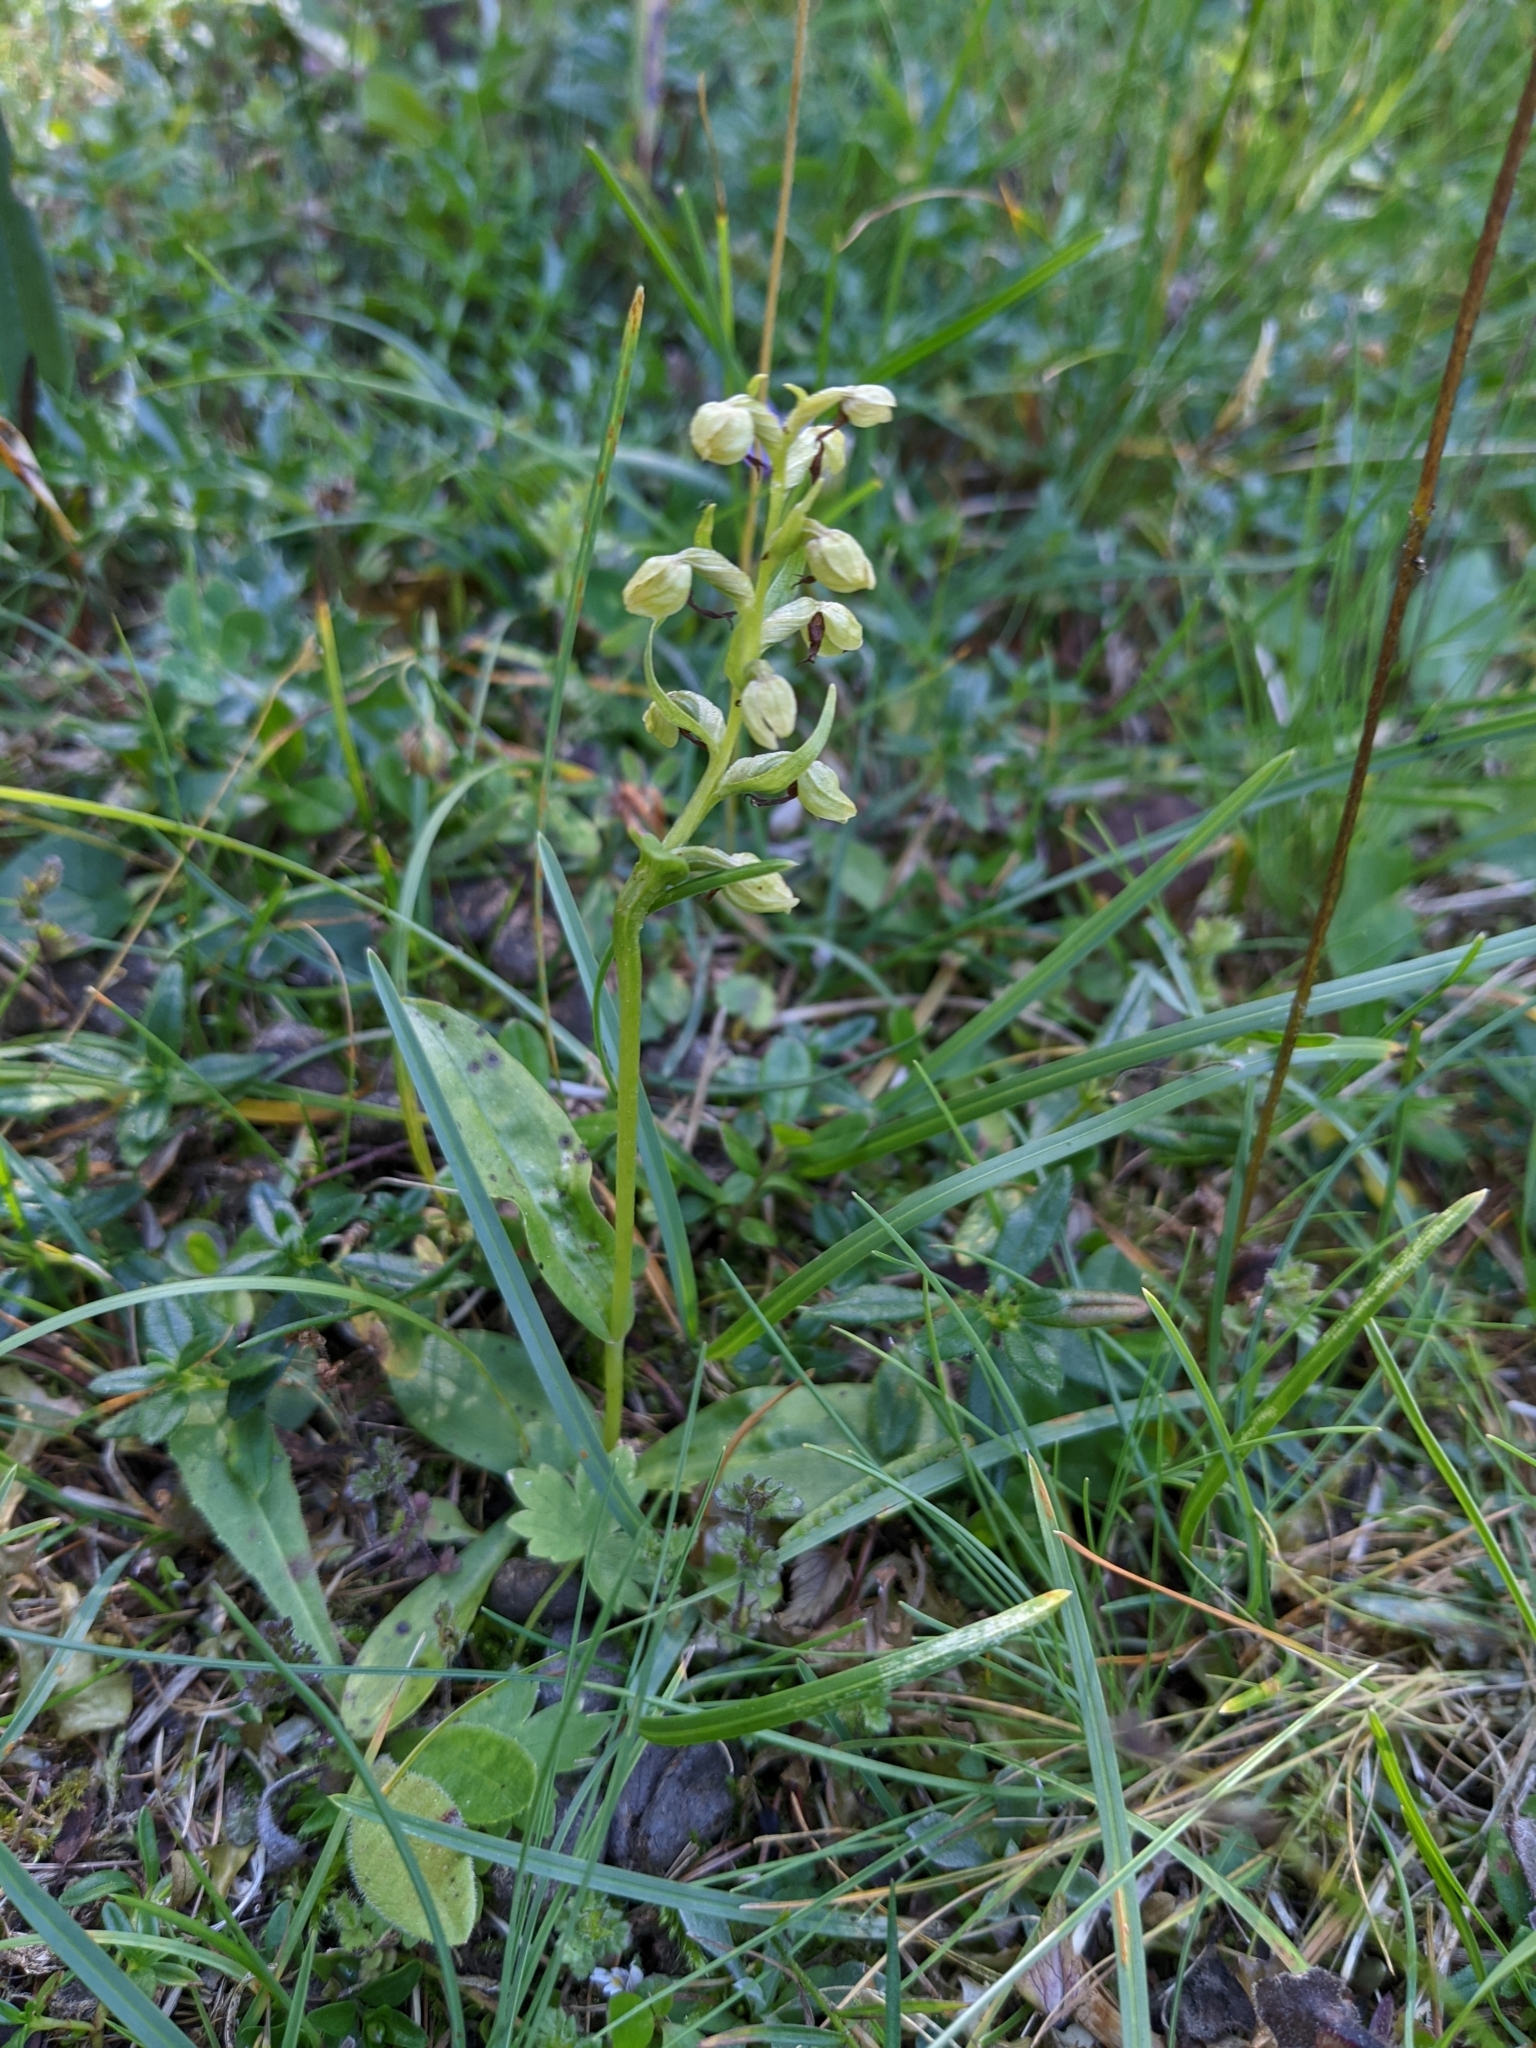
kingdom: Plantae
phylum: Tracheophyta
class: Liliopsida
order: Asparagales
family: Orchidaceae
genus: Dactylorhiza
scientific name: Dactylorhiza viridis
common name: Longbract frog orchid
